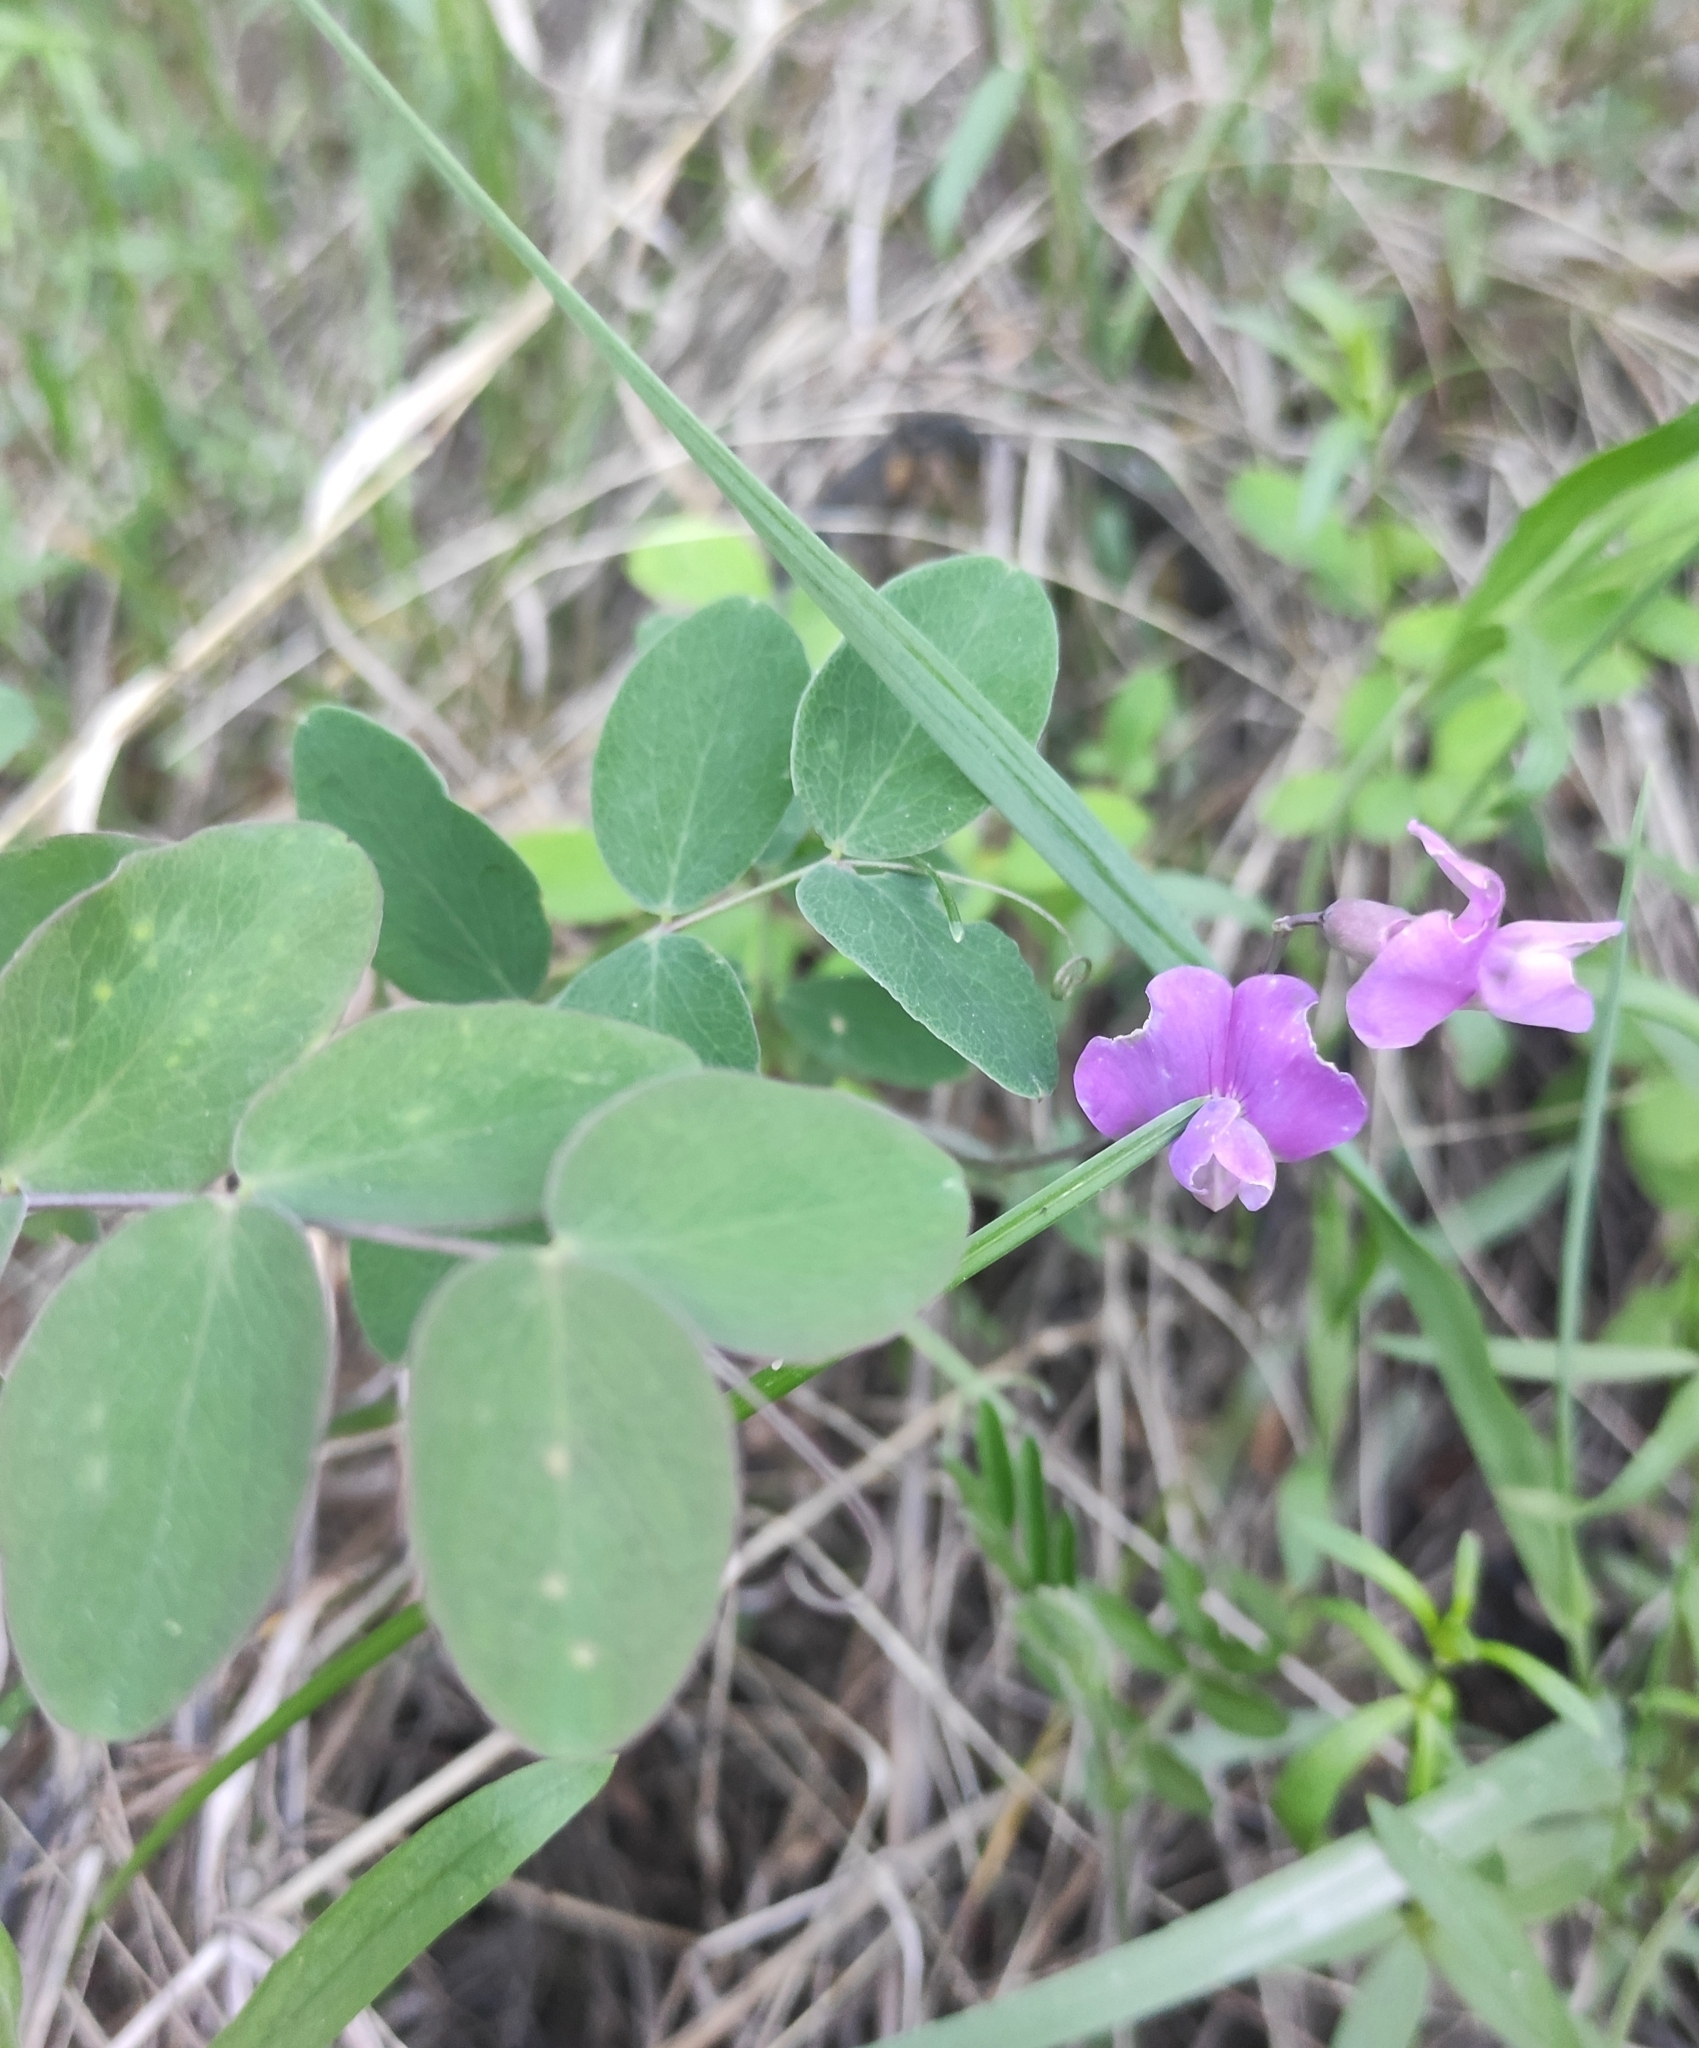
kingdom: Plantae
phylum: Tracheophyta
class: Magnoliopsida
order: Fabales
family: Fabaceae
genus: Lathyrus
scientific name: Lathyrus humilis
